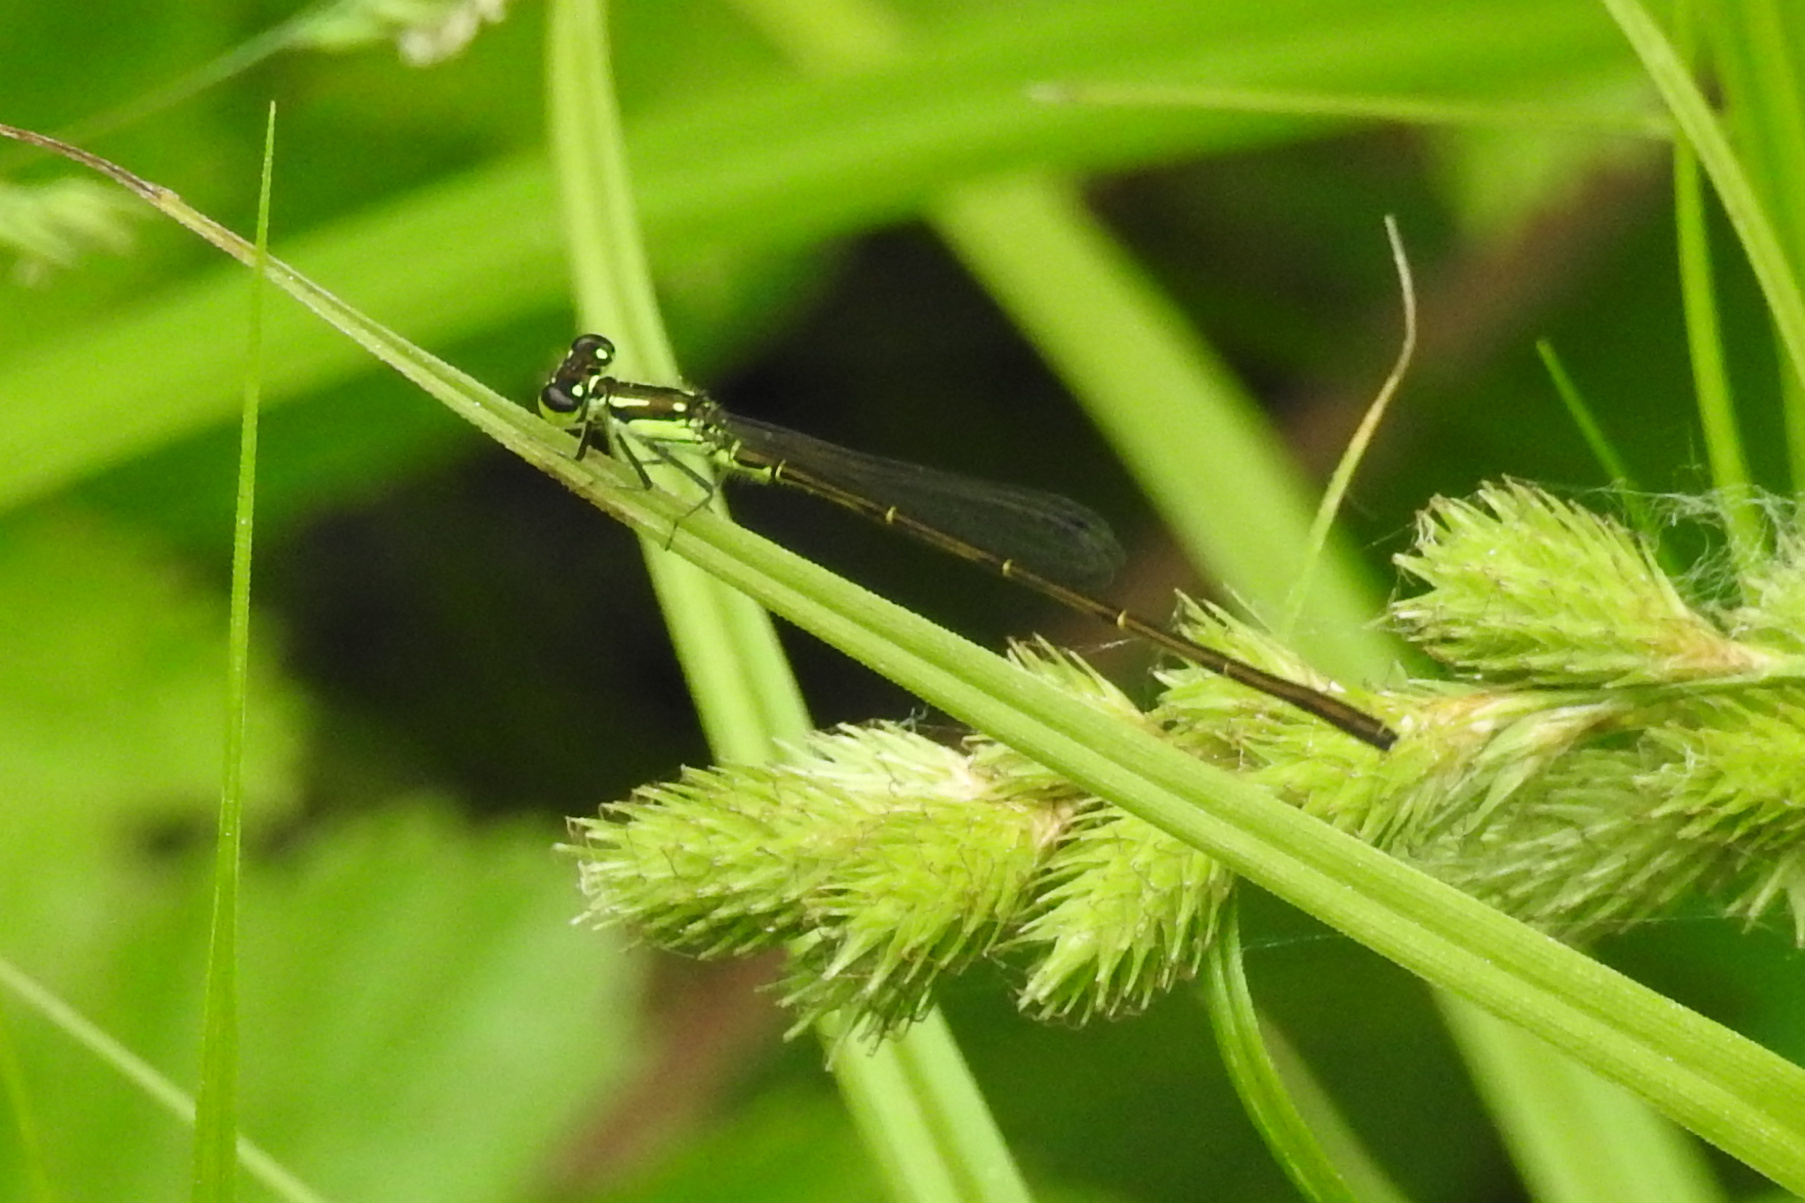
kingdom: Animalia
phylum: Arthropoda
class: Insecta
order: Odonata
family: Coenagrionidae
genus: Ischnura
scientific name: Ischnura posita
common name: Fragile forktail
